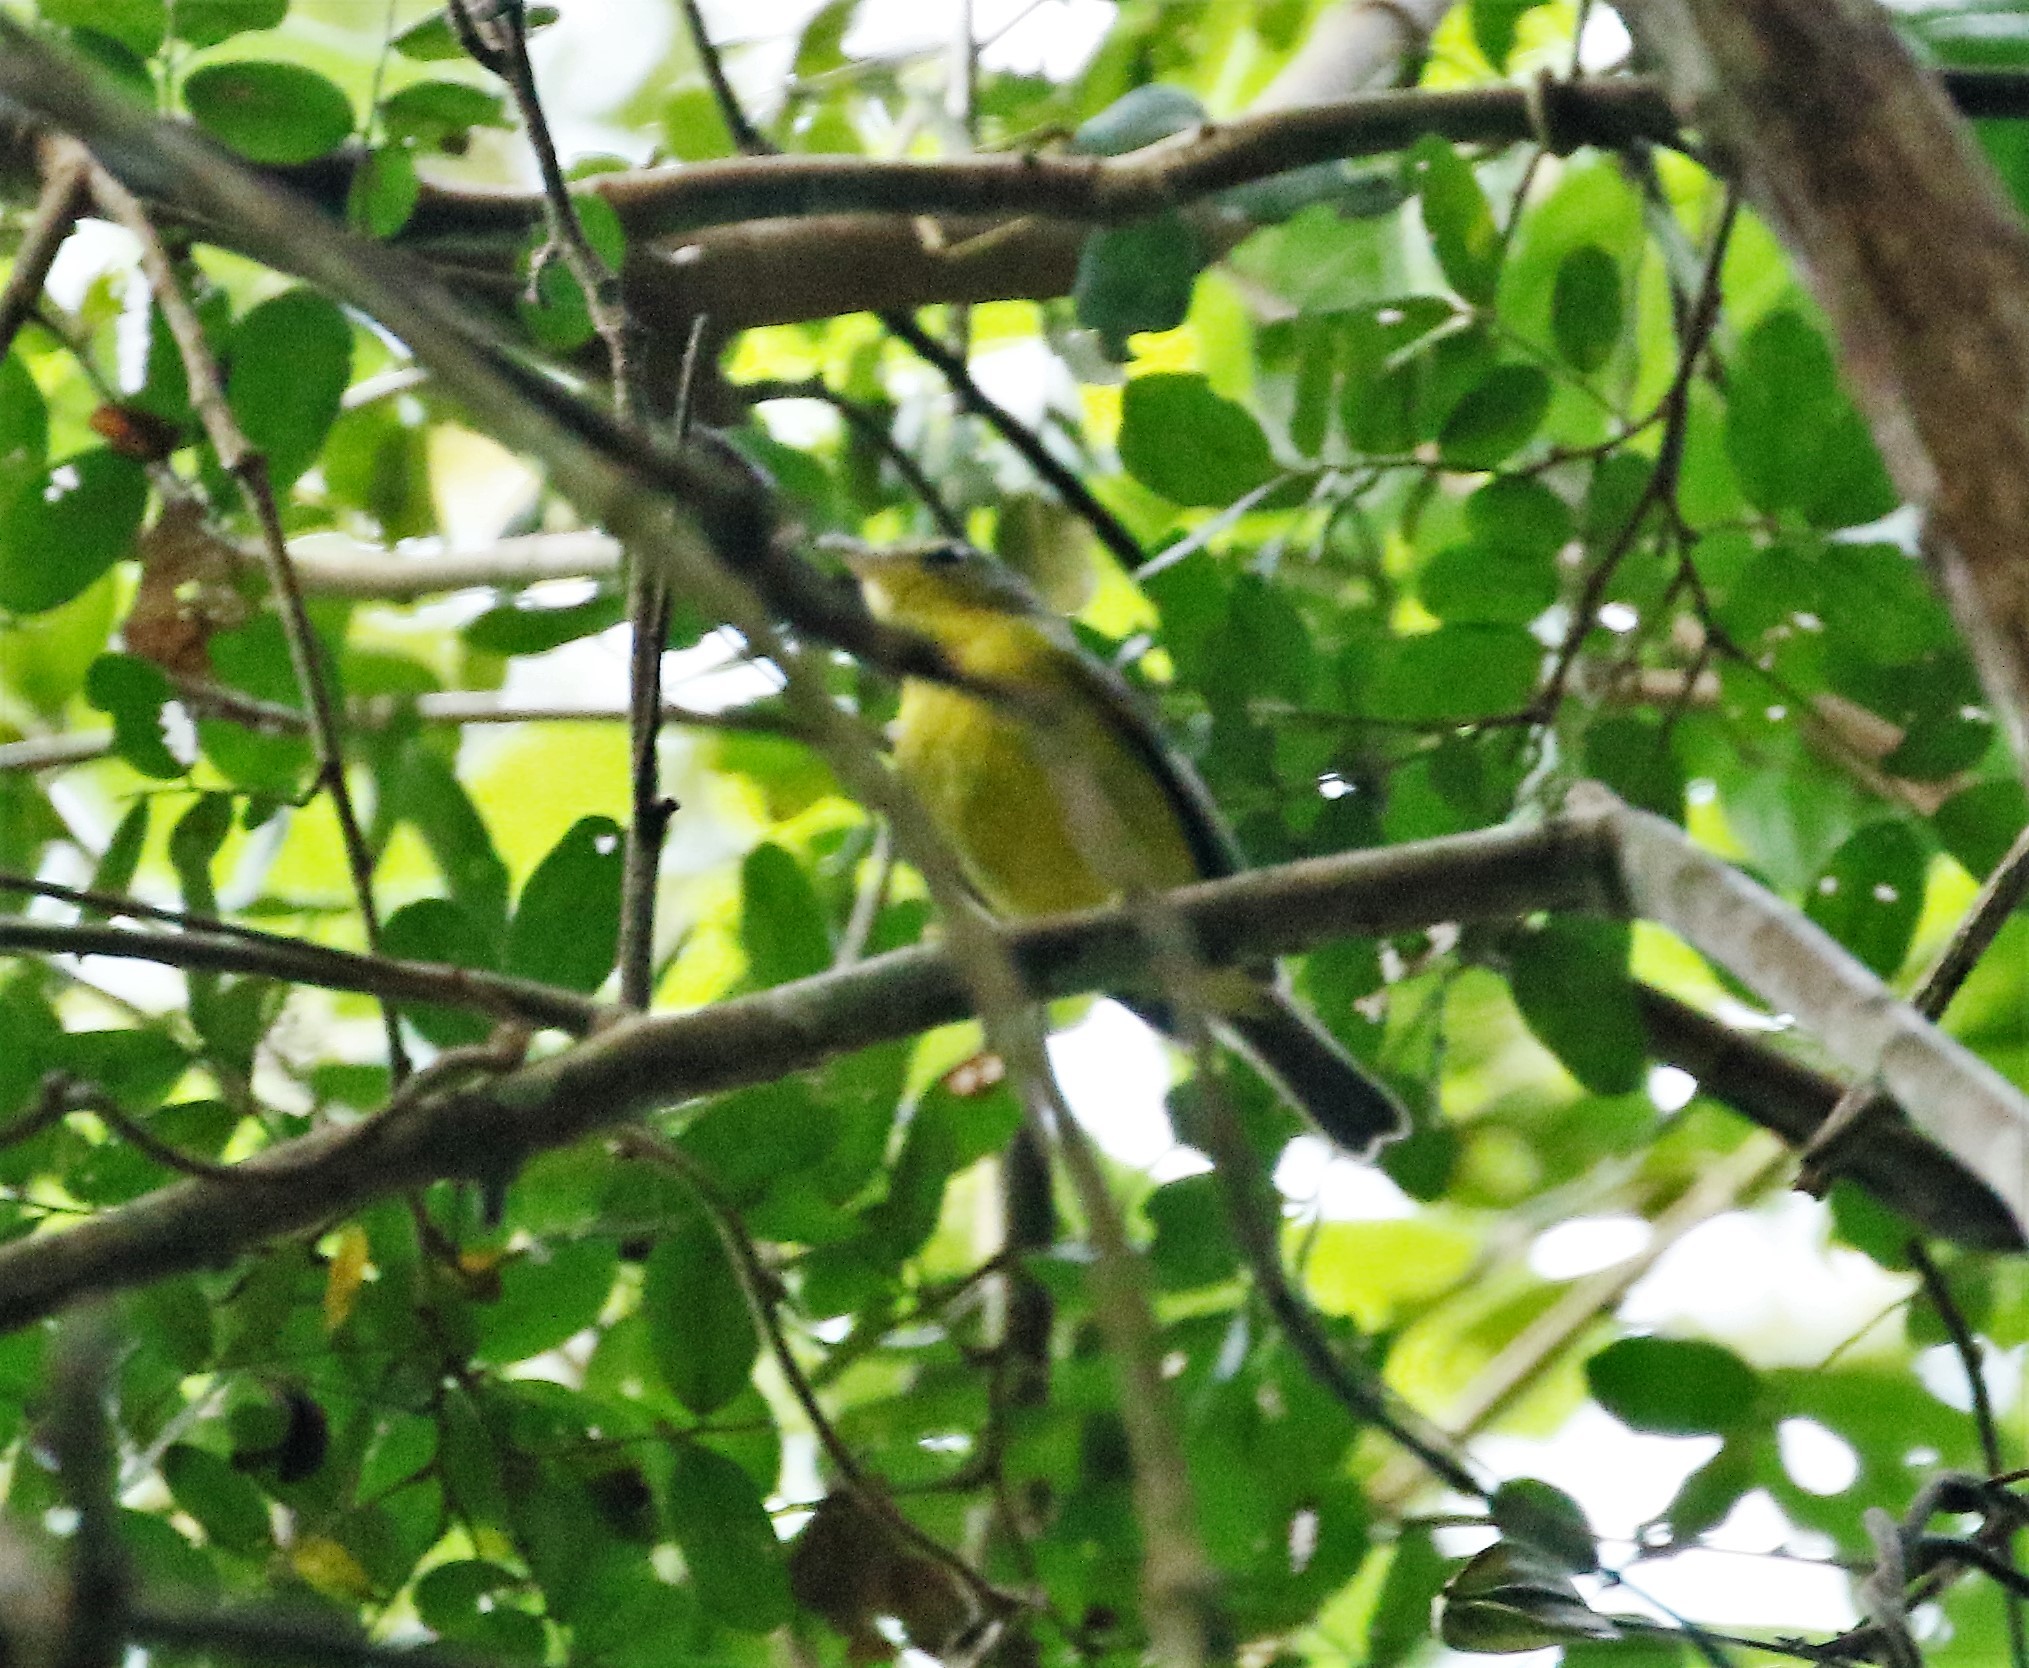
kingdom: Animalia
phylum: Chordata
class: Aves
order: Passeriformes
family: Parulidae
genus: Basileuterus
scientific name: Basileuterus culicivorus
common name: Golden-crowned warbler
